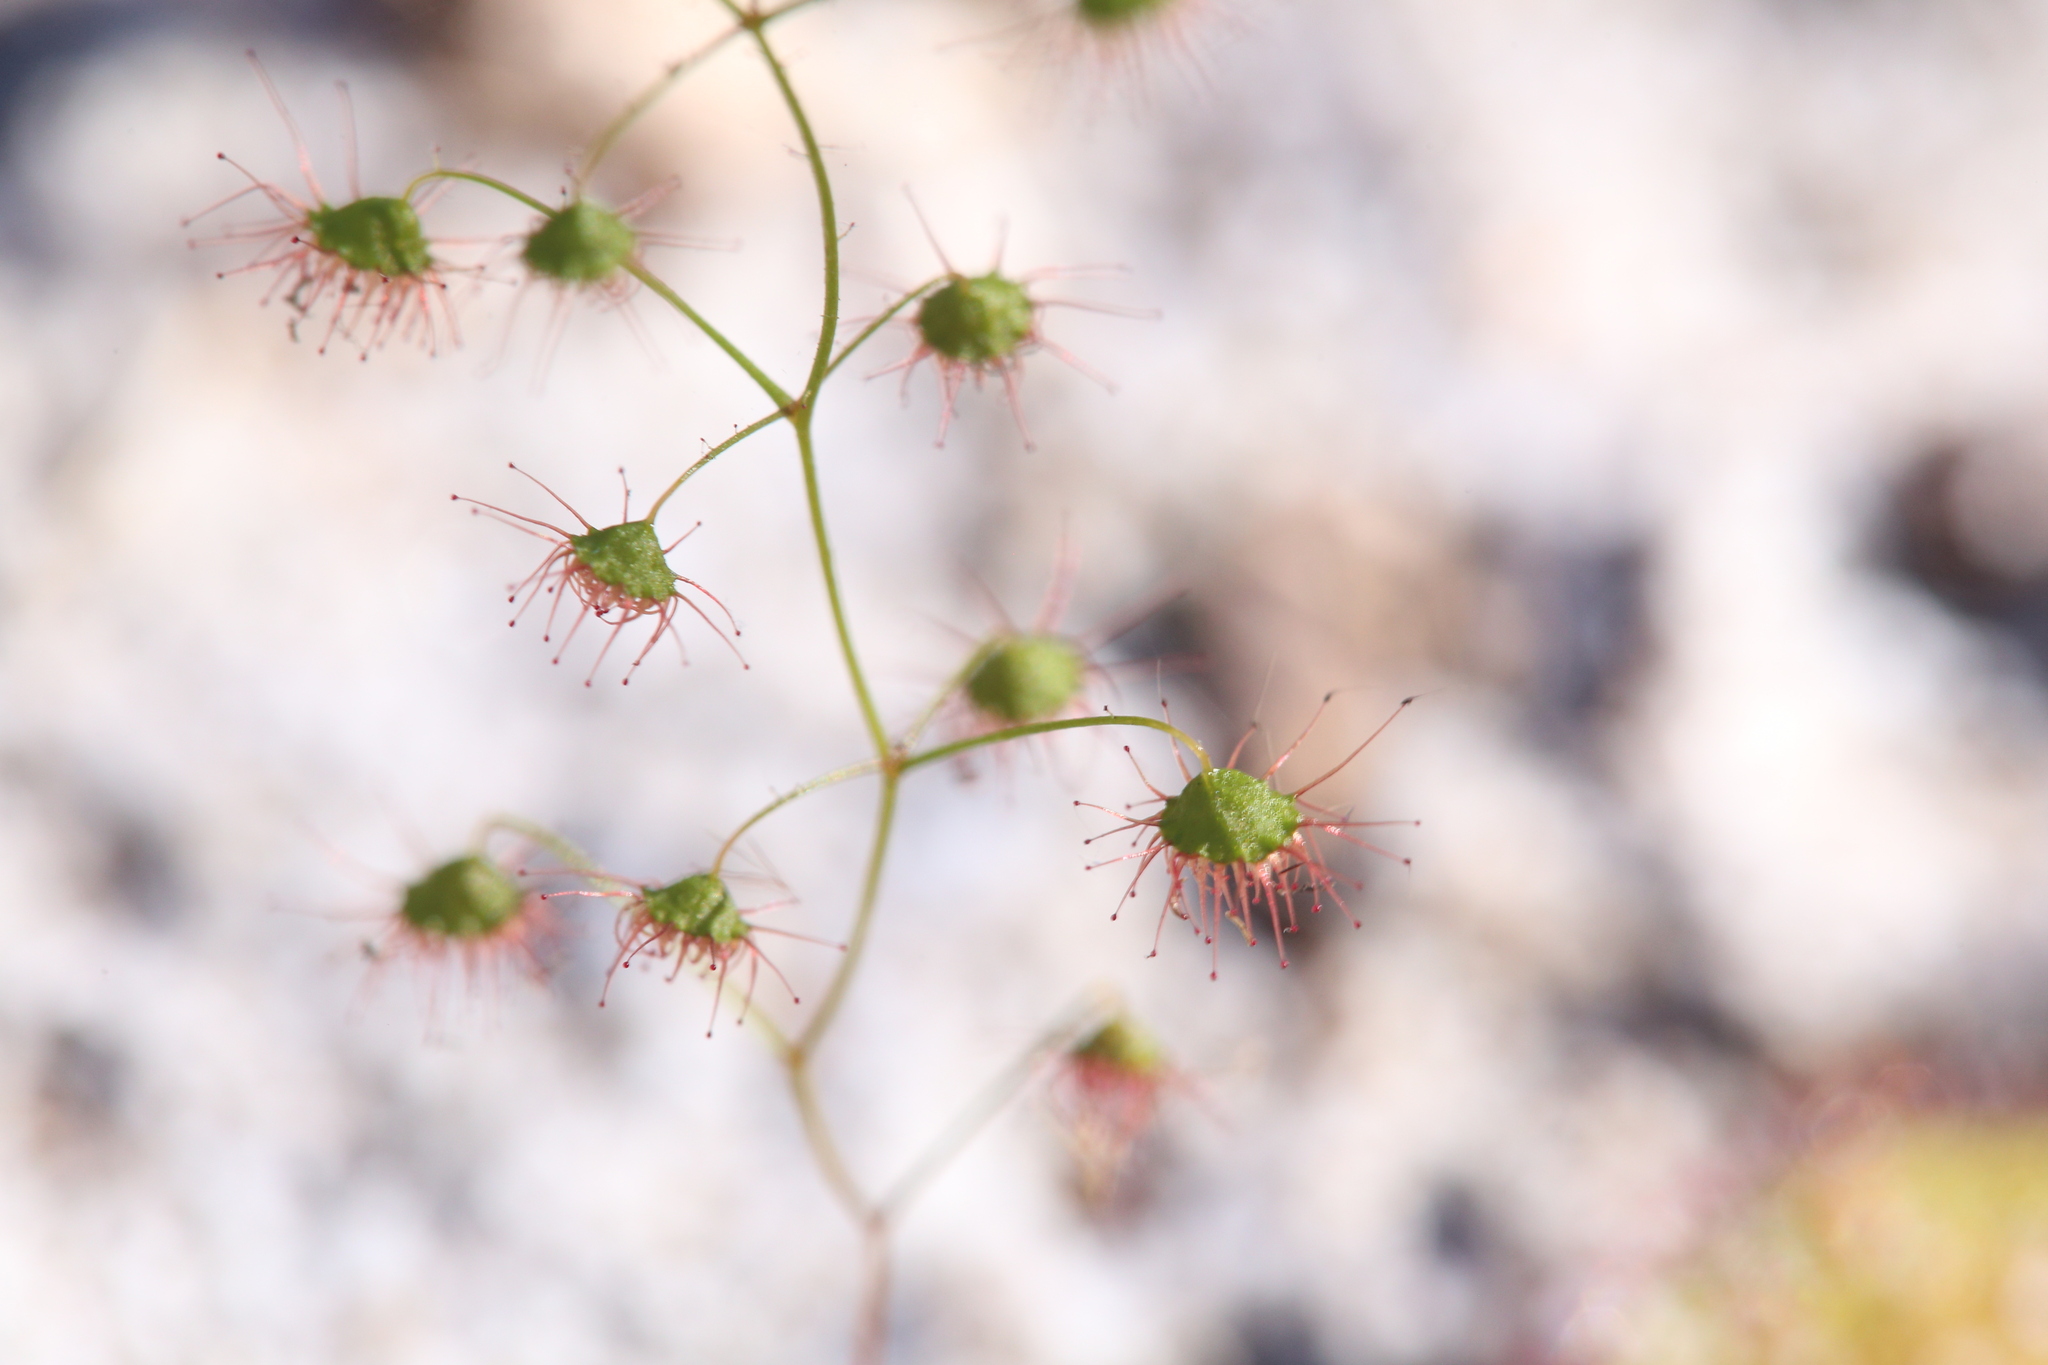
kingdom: Plantae
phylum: Tracheophyta
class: Magnoliopsida
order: Caryophyllales
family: Droseraceae
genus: Drosera
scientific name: Drosera macrantha
